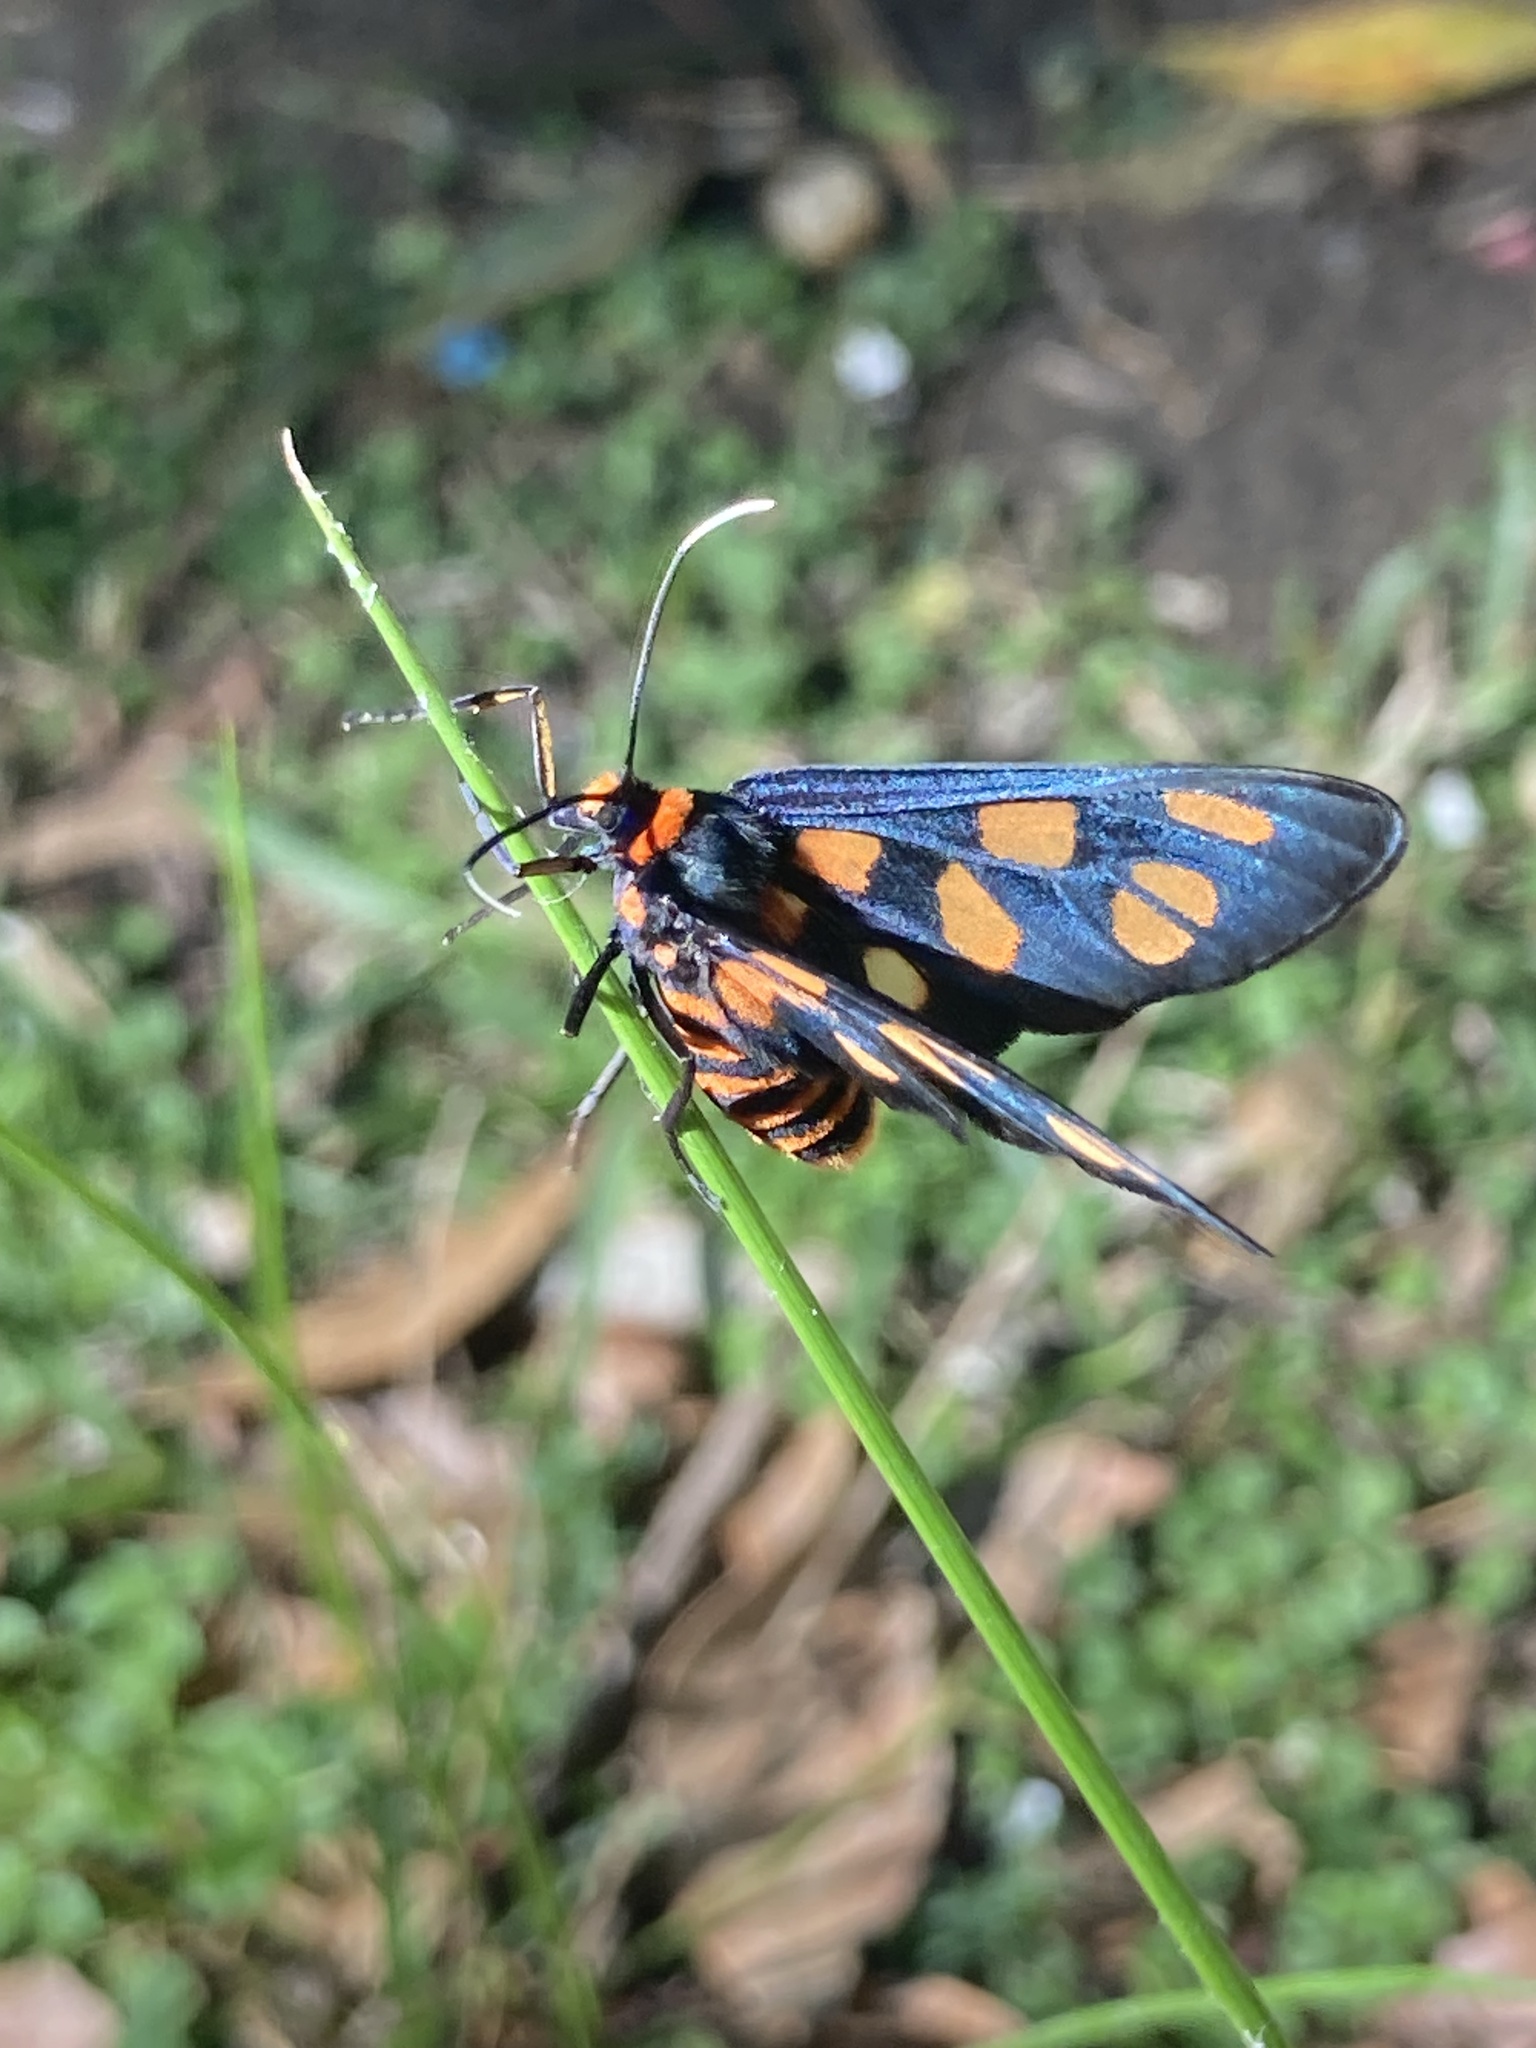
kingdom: Animalia
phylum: Arthropoda
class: Insecta
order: Lepidoptera
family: Erebidae
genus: Amata
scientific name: Amata nigriceps
